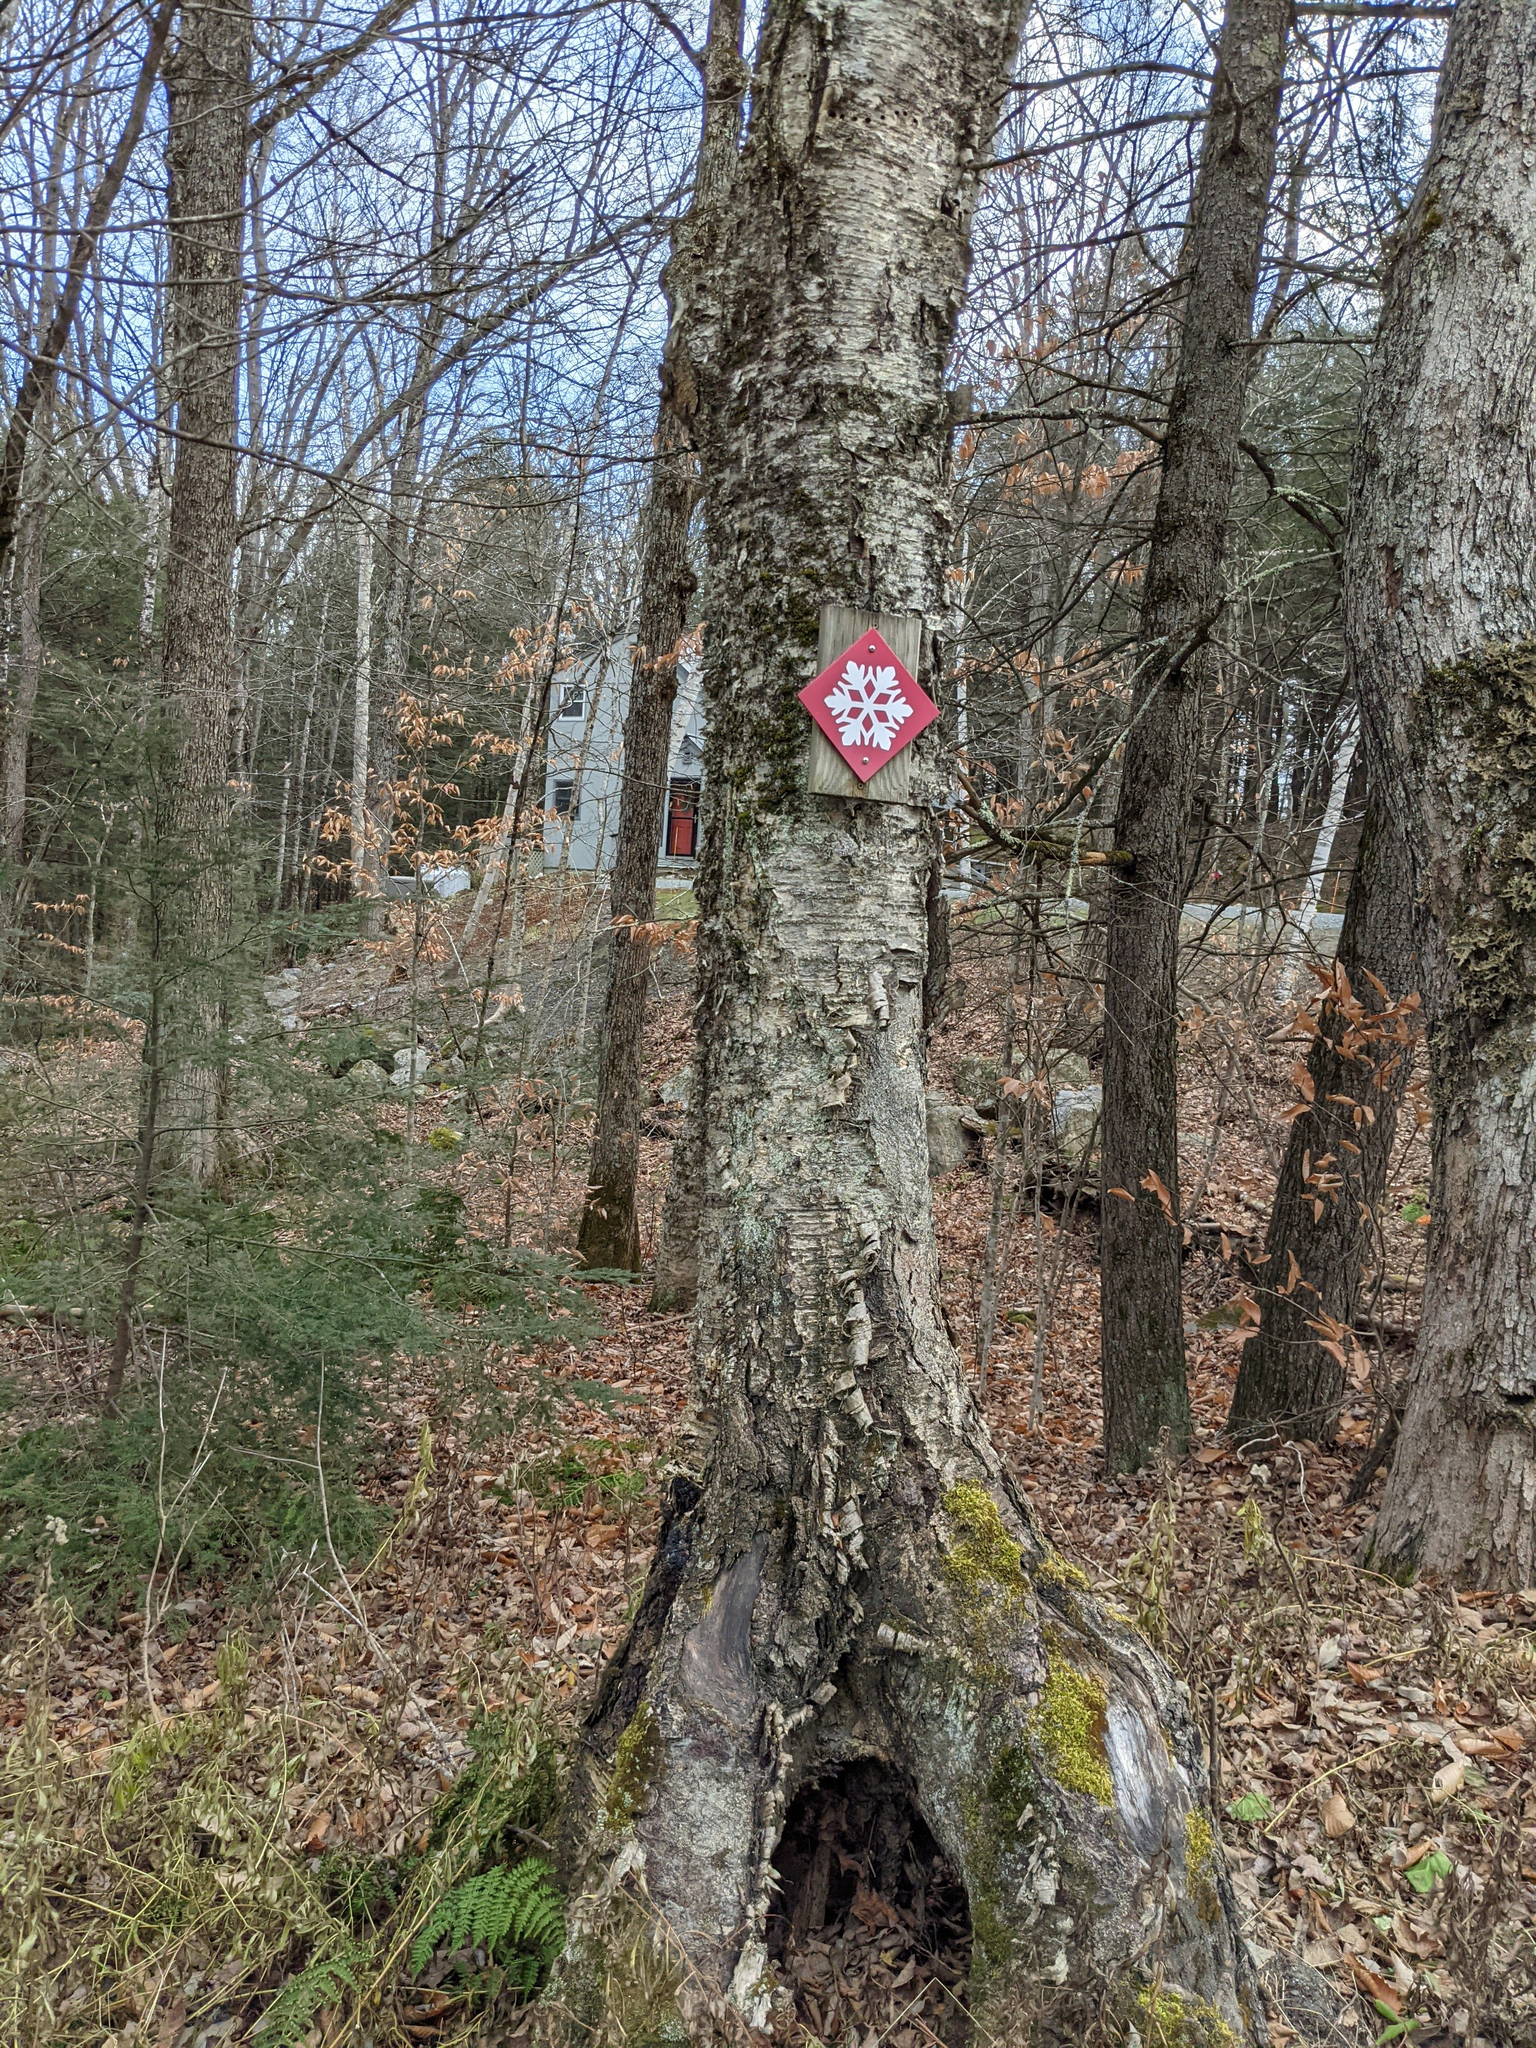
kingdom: Plantae
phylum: Tracheophyta
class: Magnoliopsida
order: Fagales
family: Betulaceae
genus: Betula
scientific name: Betula alleghaniensis
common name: Yellow birch
